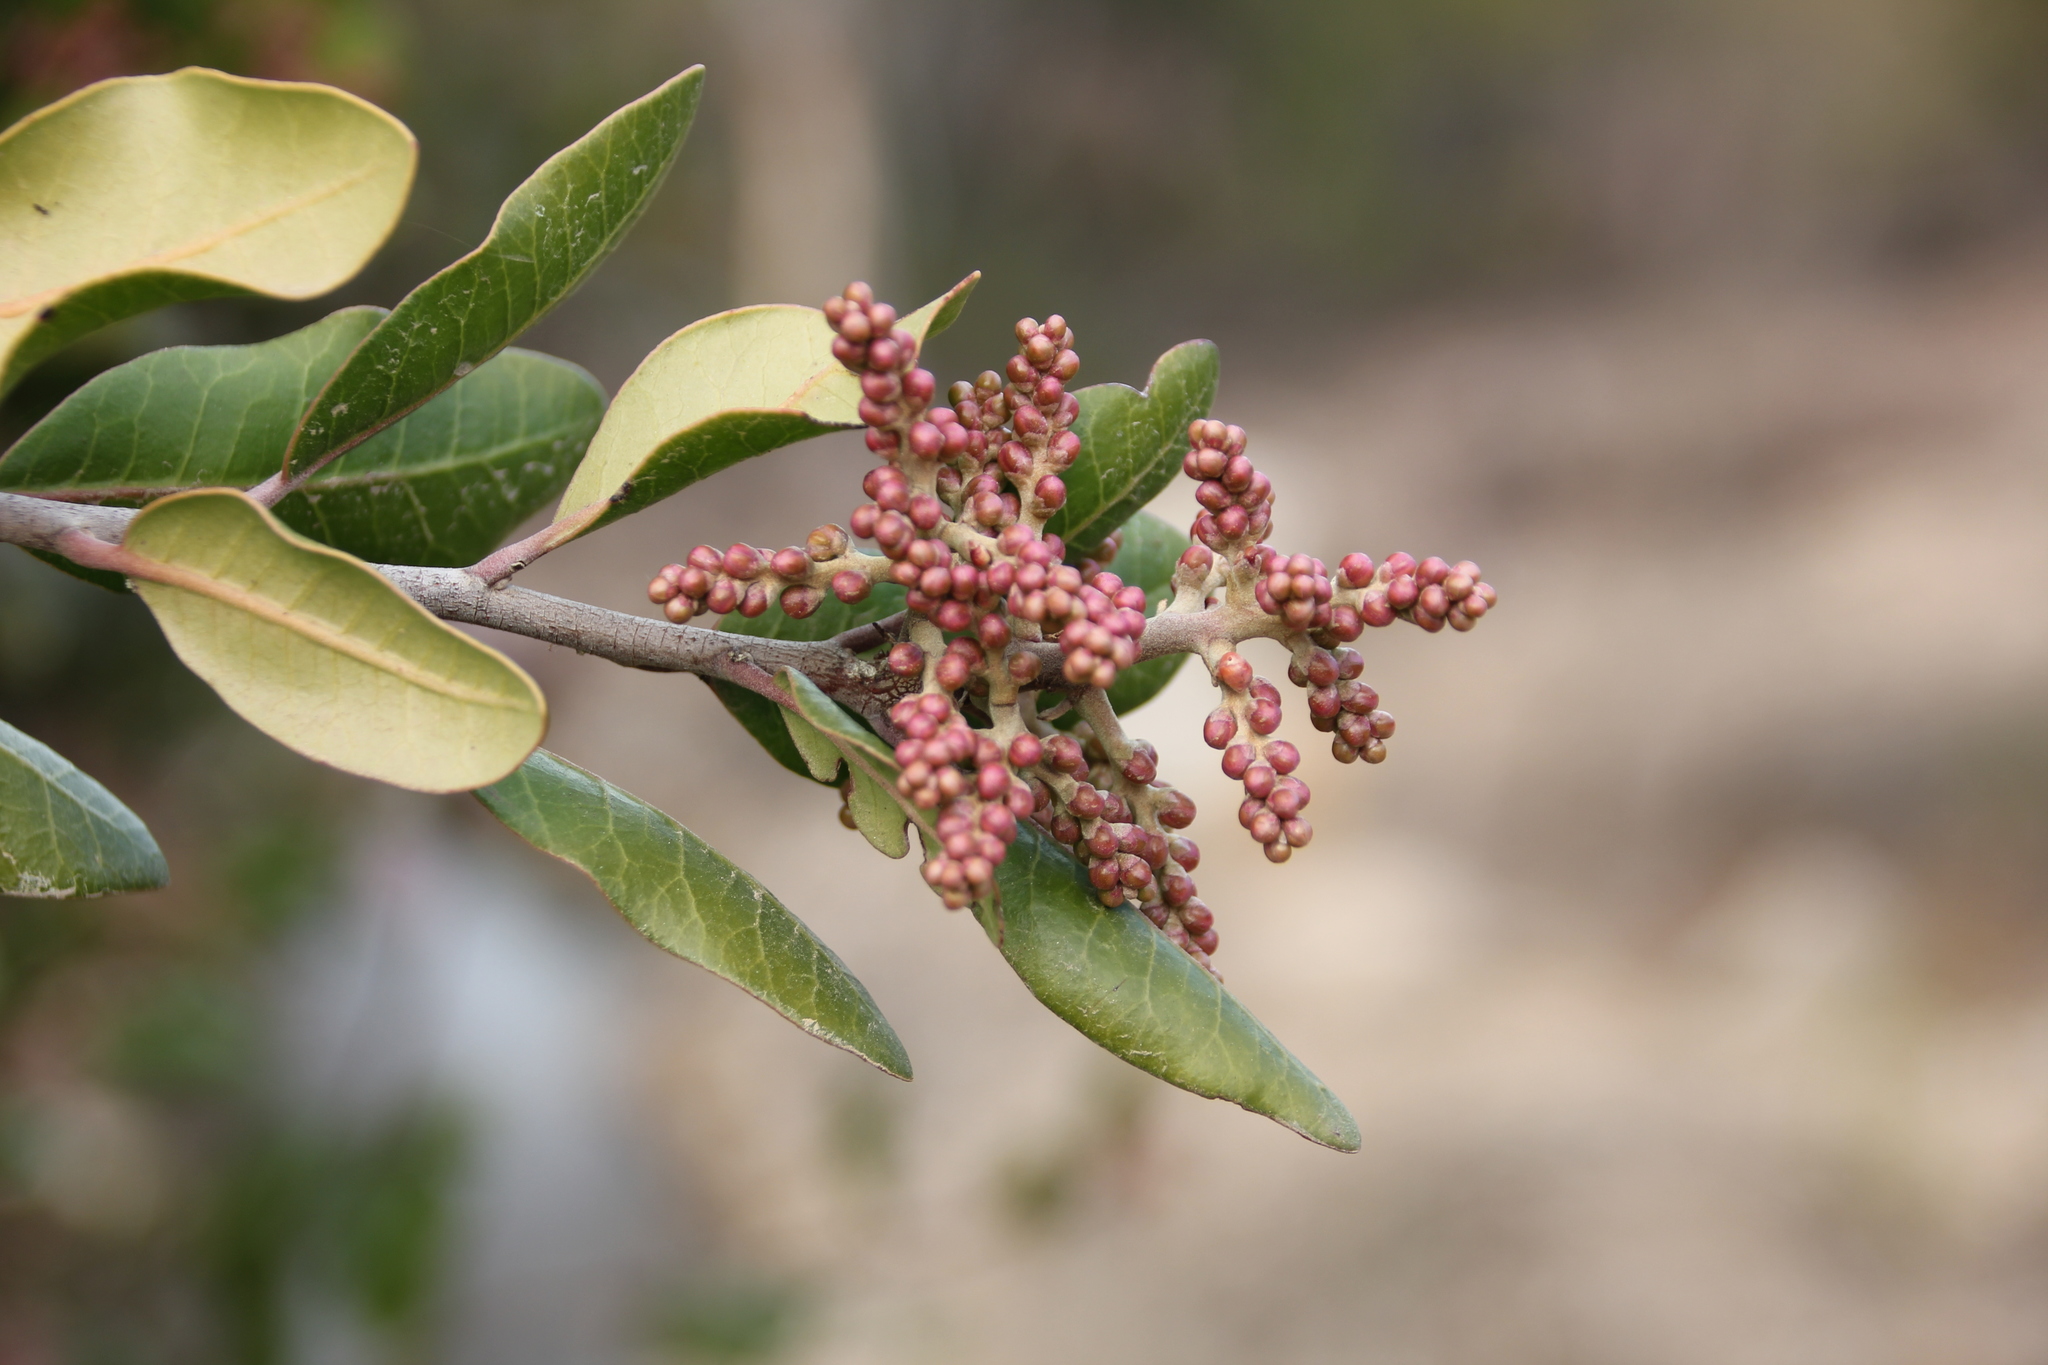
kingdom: Plantae
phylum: Tracheophyta
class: Magnoliopsida
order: Sapindales
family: Anacardiaceae
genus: Rhus
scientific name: Rhus integrifolia
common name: Lemonade sumac
